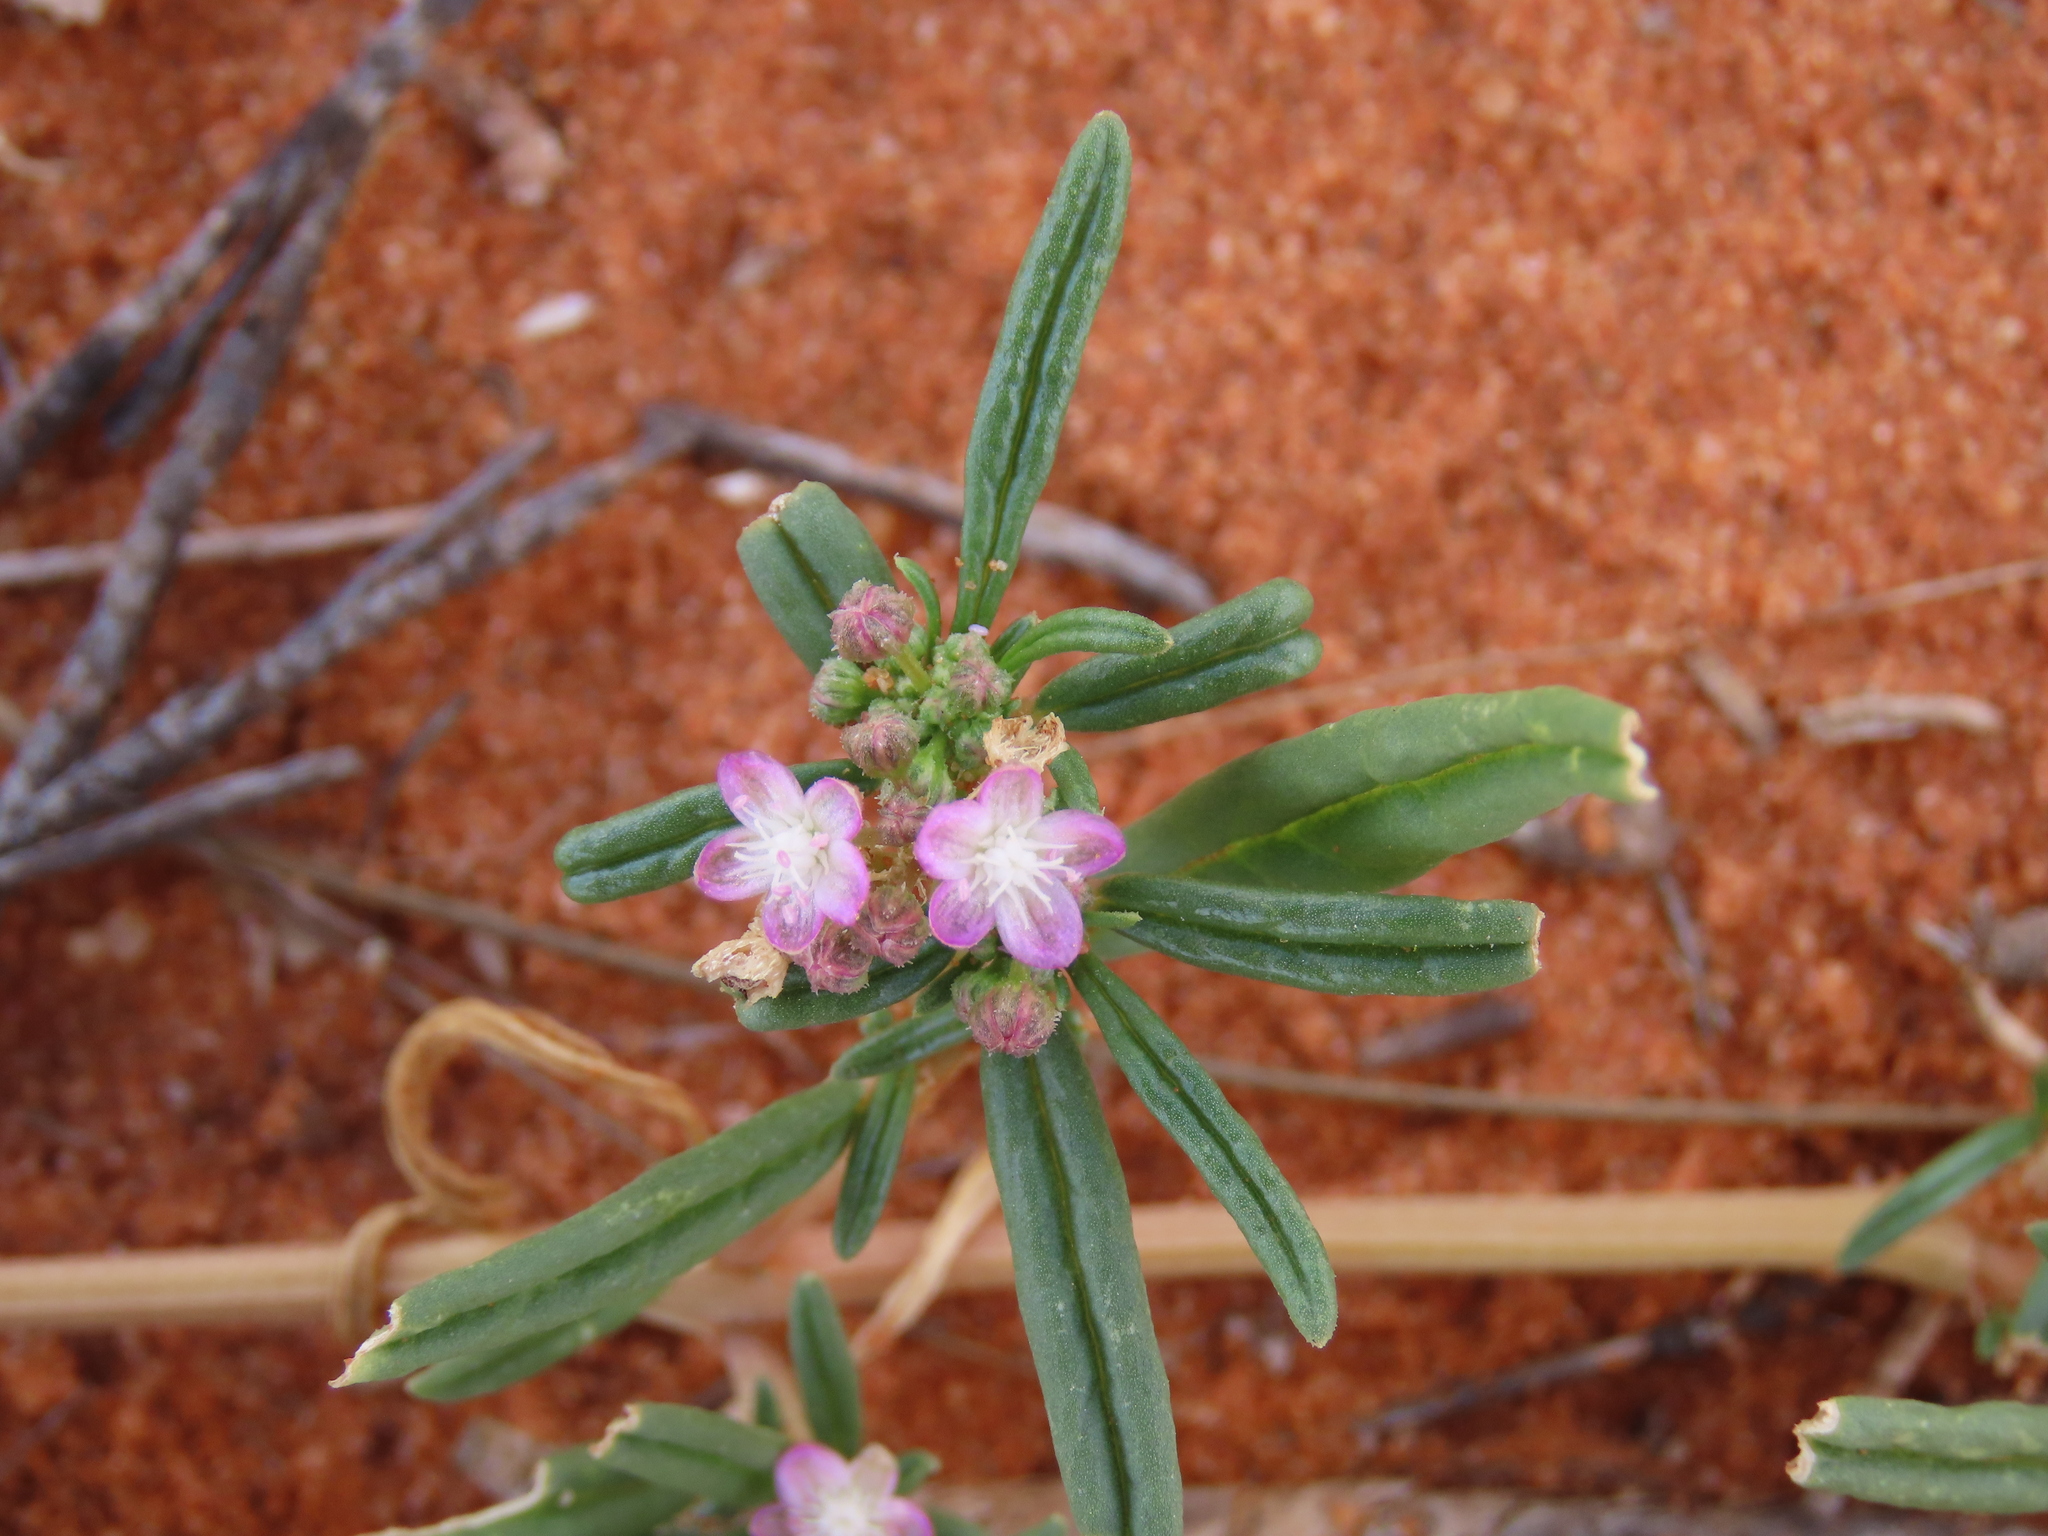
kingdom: Plantae
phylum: Tracheophyta
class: Magnoliopsida
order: Caryophyllales
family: Gisekiaceae
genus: Gisekia
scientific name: Gisekia africana
